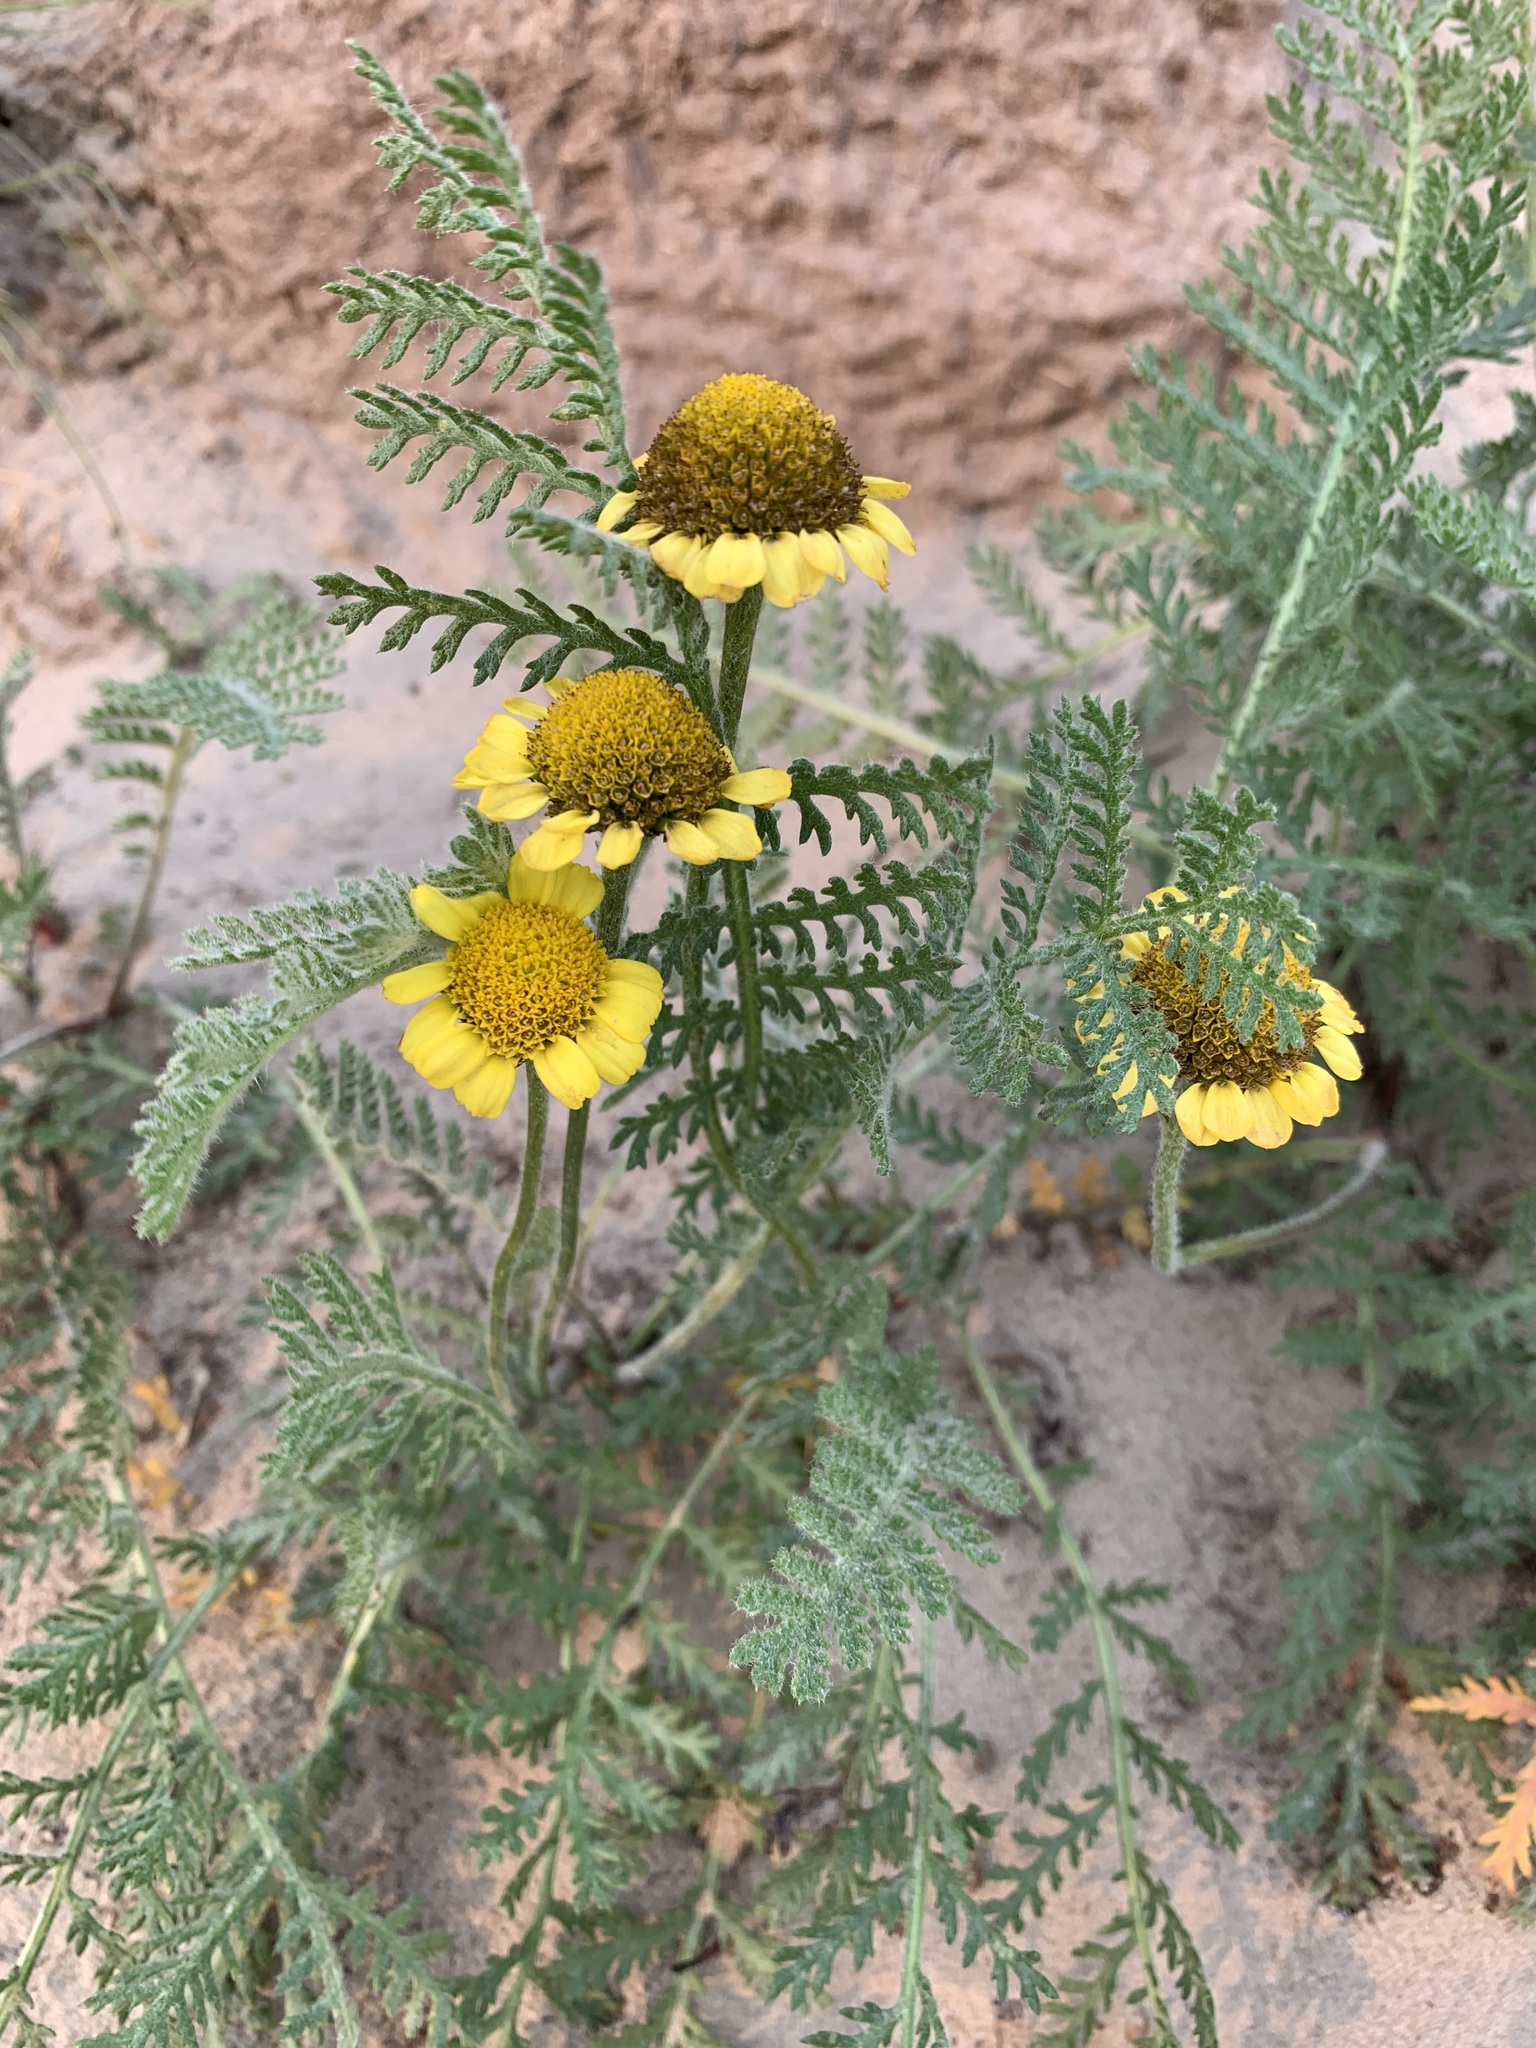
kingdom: Plantae
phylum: Tracheophyta
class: Magnoliopsida
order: Asterales
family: Asteraceae
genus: Tanacetum
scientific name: Tanacetum bipinnatum
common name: Dwarf tansy
